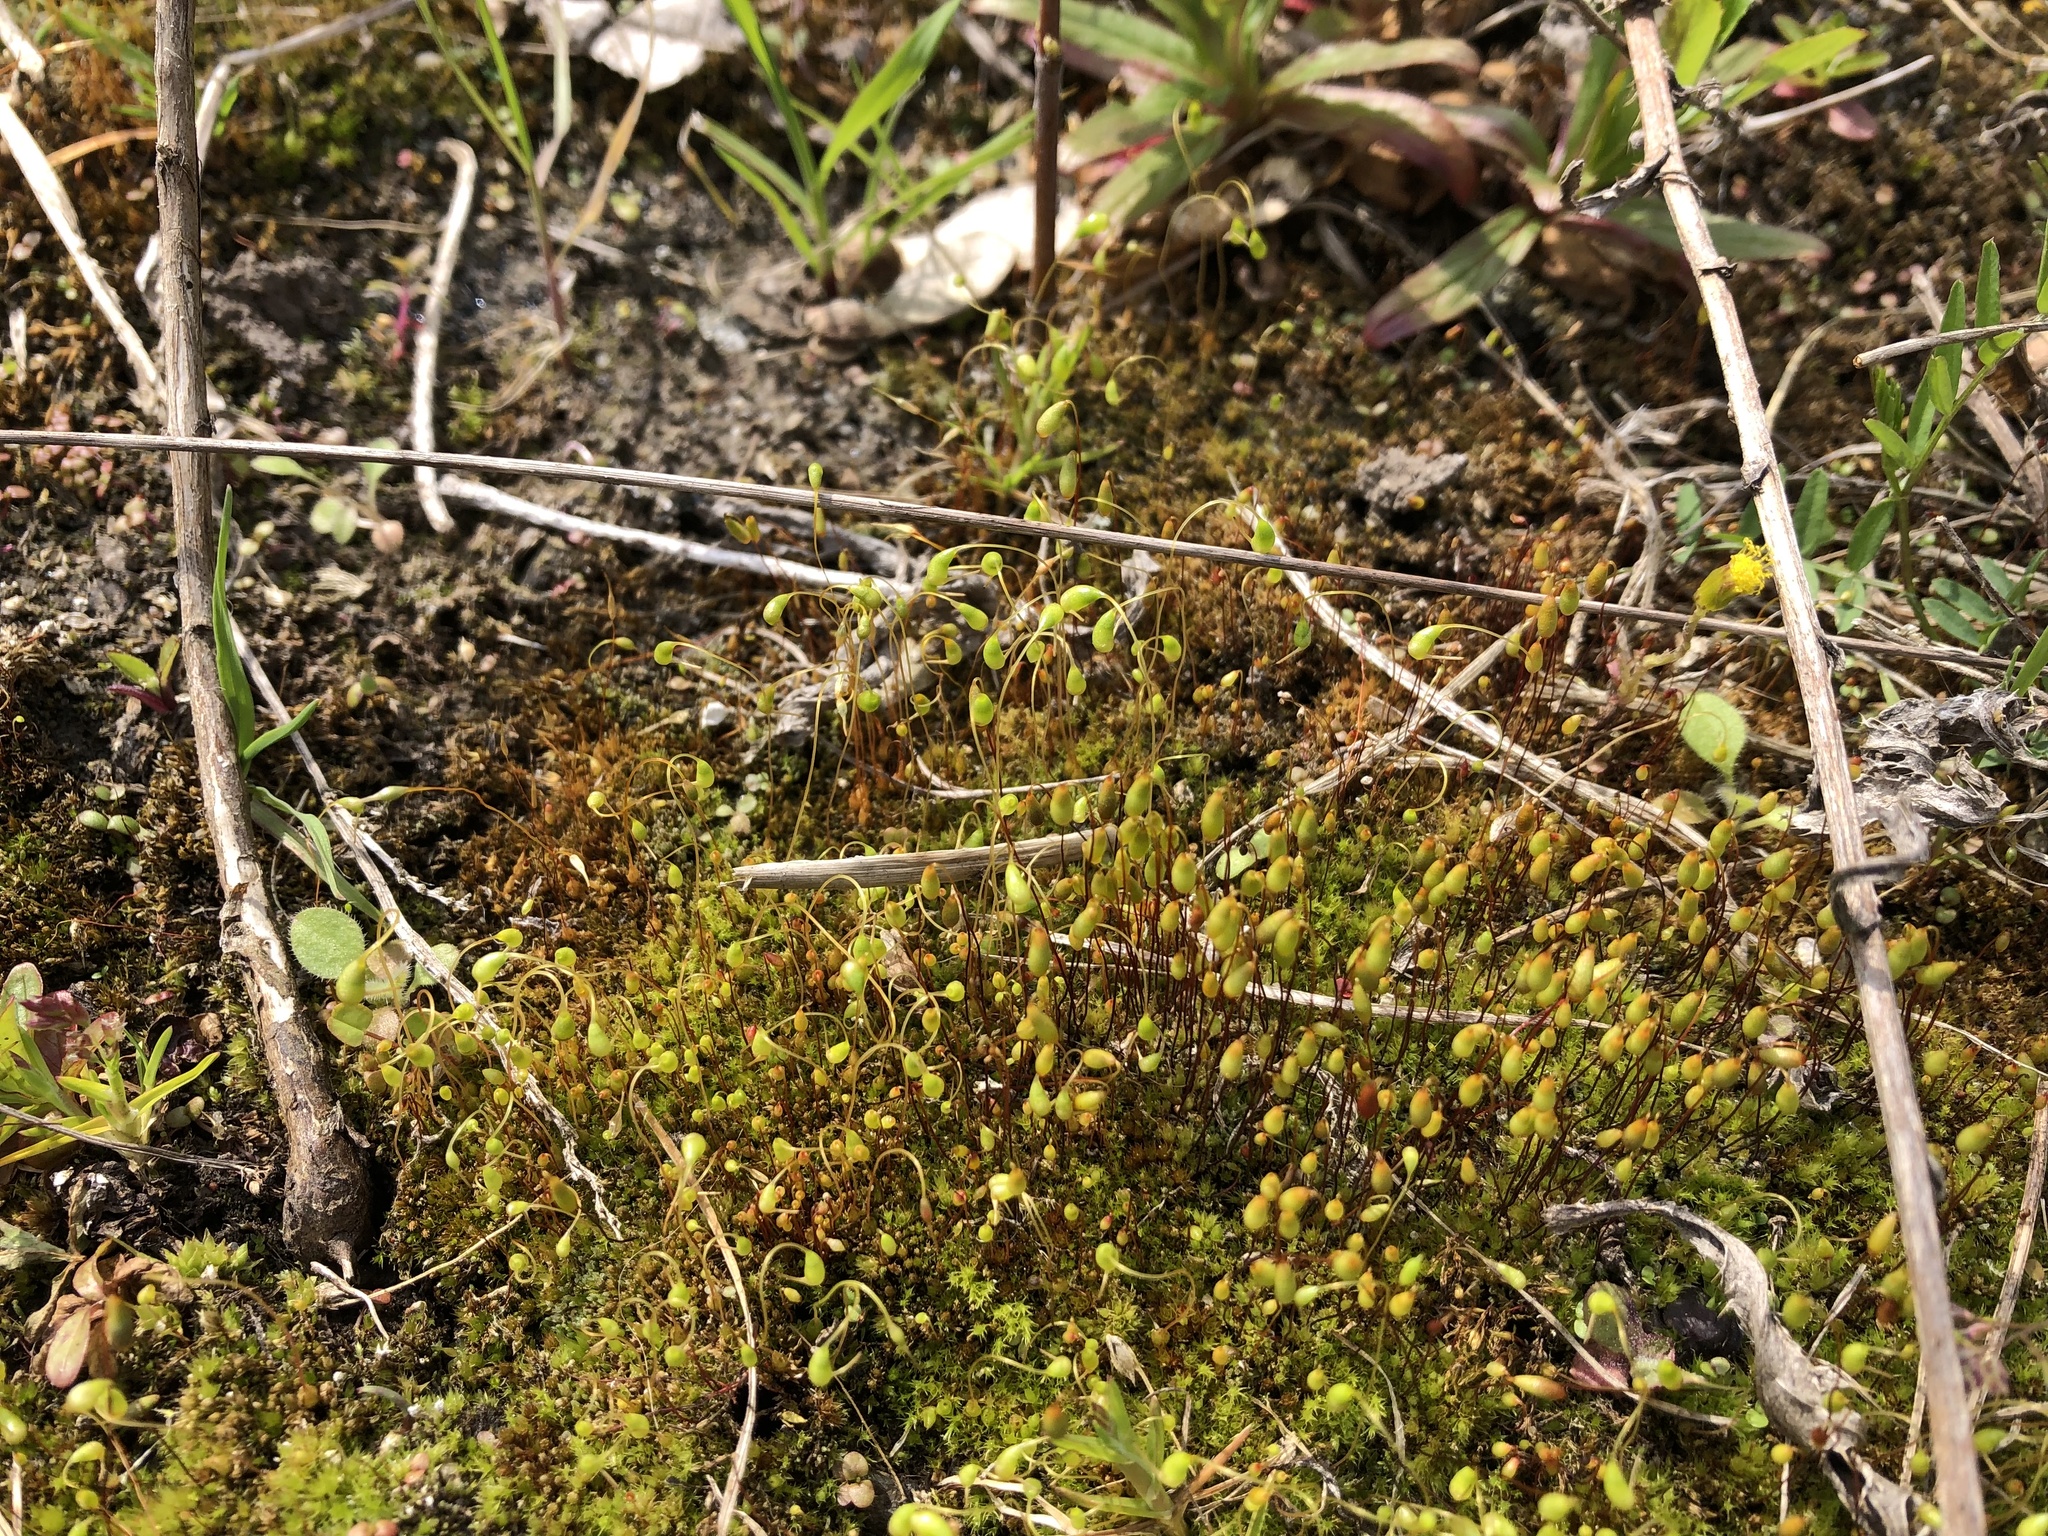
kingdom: Plantae
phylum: Bryophyta
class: Bryopsida
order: Funariales
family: Funariaceae
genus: Funaria
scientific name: Funaria hygrometrica
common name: Common cord moss
